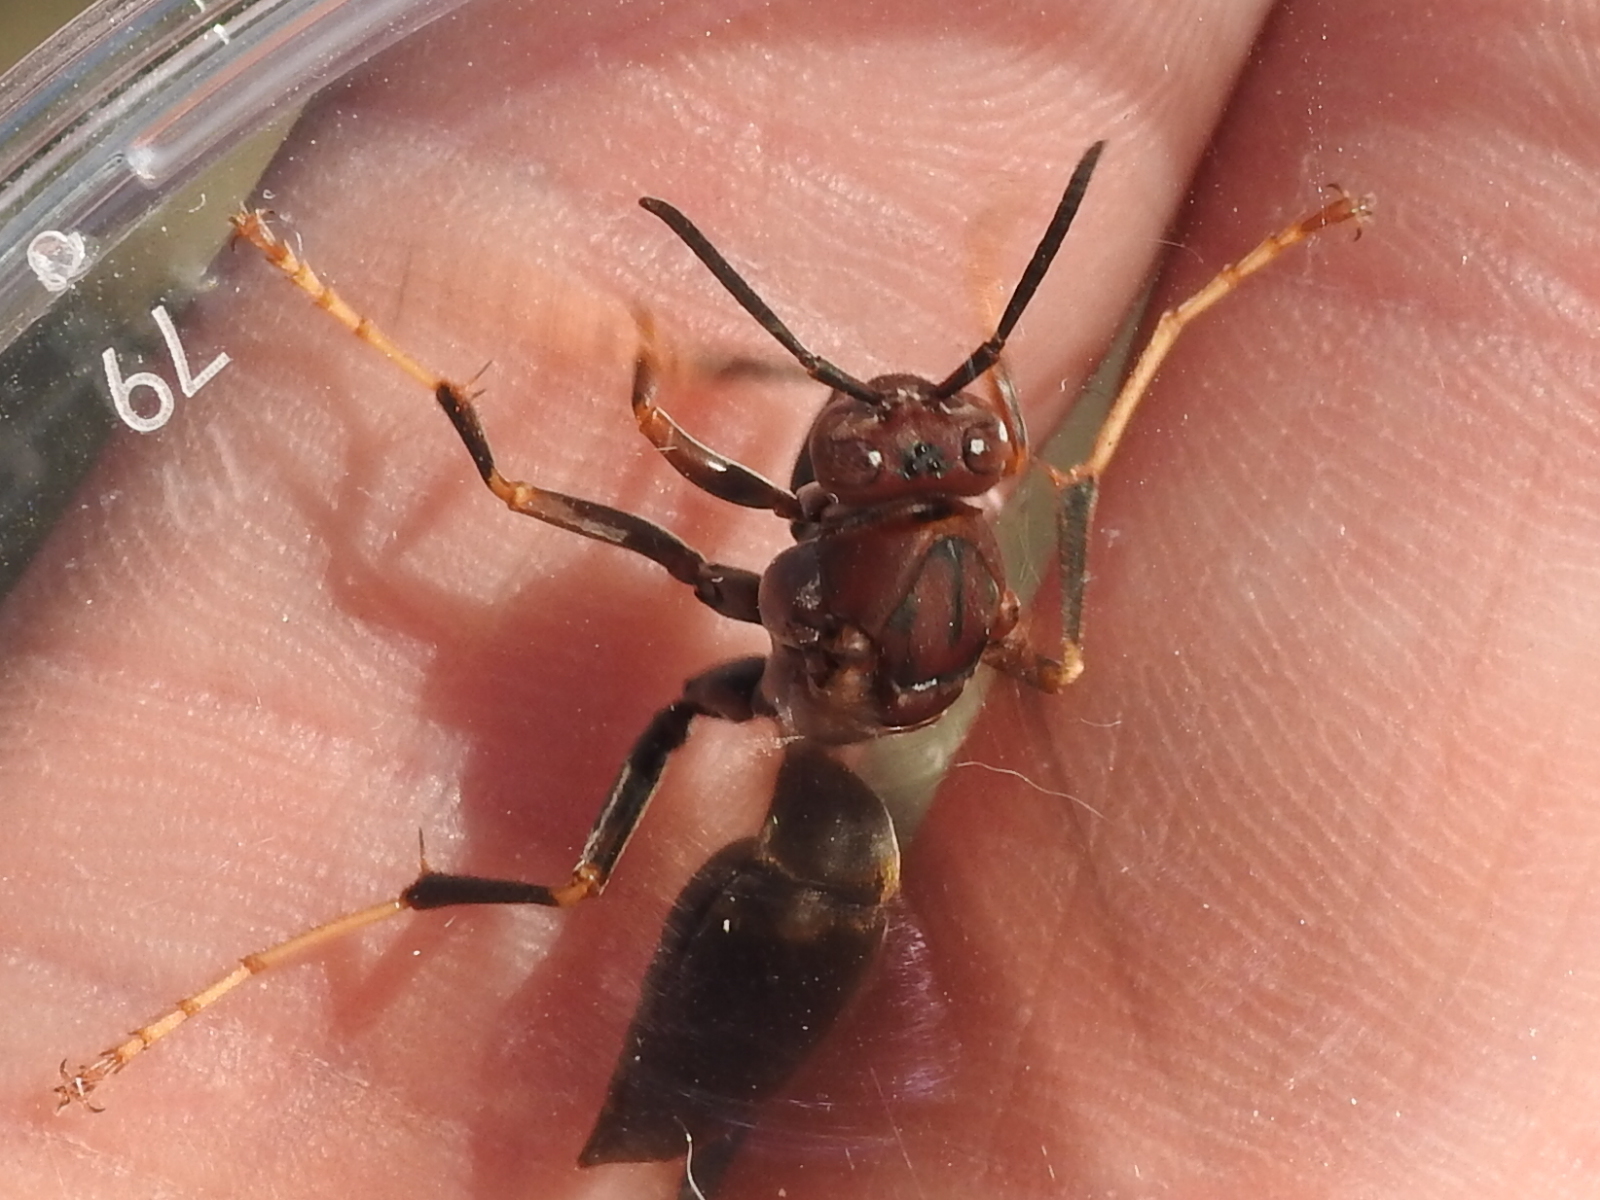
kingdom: Animalia
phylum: Arthropoda
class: Insecta
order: Hymenoptera
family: Eumenidae
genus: Polistes
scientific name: Polistes metricus
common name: Metric paper wasp
